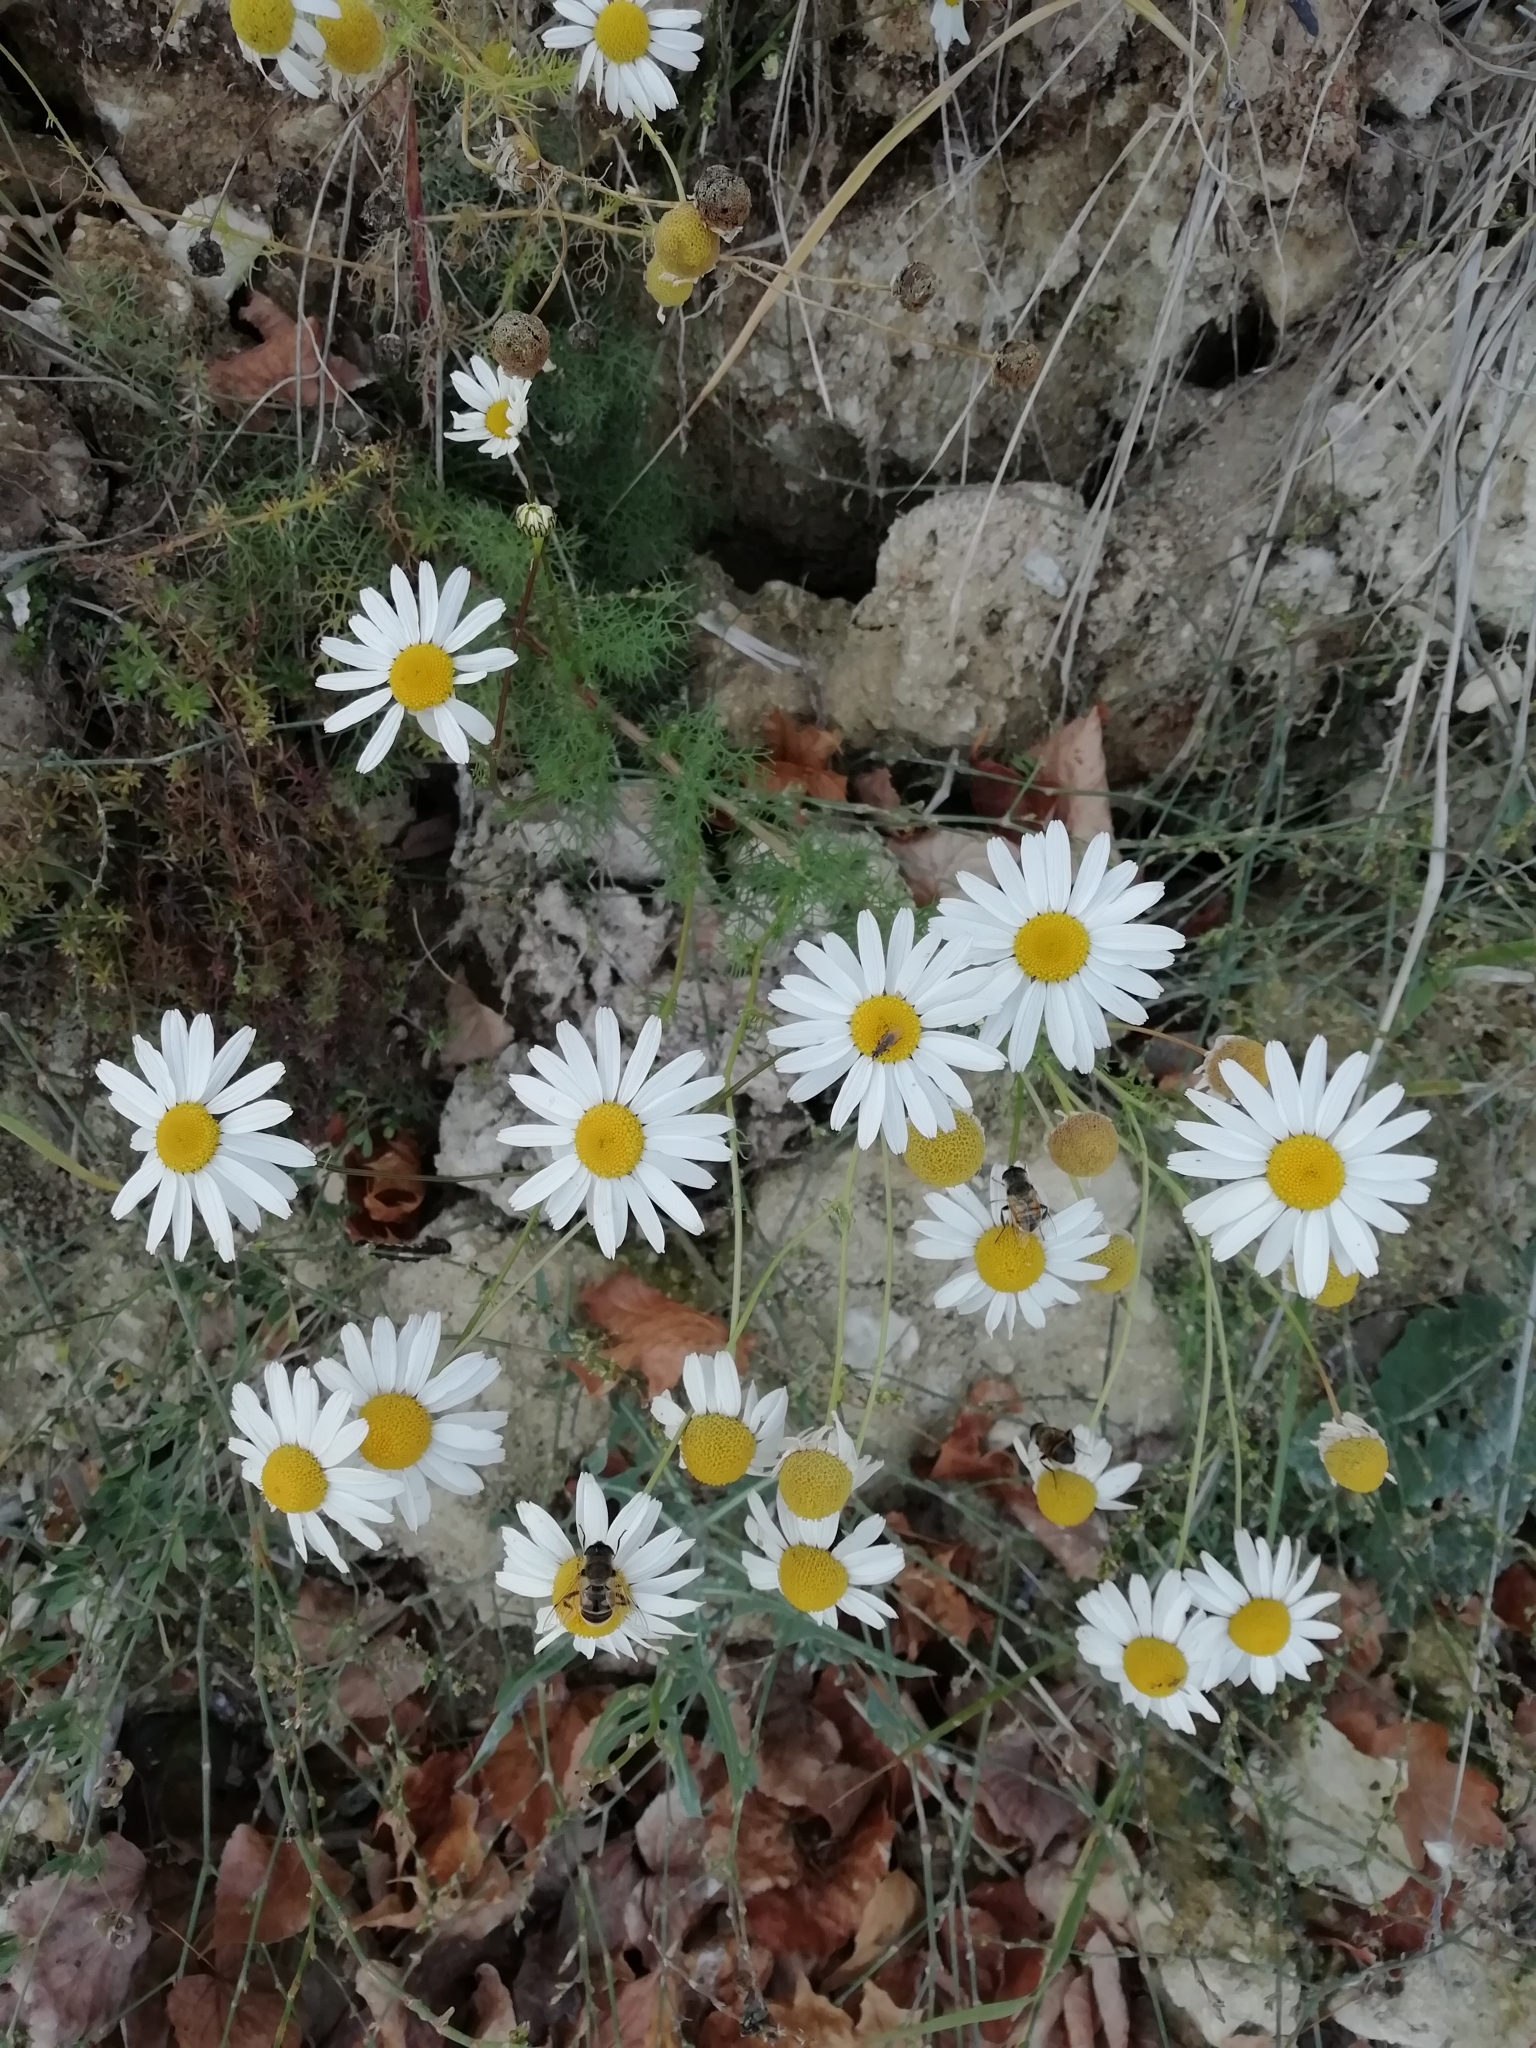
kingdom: Plantae
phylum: Tracheophyta
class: Magnoliopsida
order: Asterales
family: Asteraceae
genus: Tripleurospermum
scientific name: Tripleurospermum inodorum
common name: Scentless mayweed
